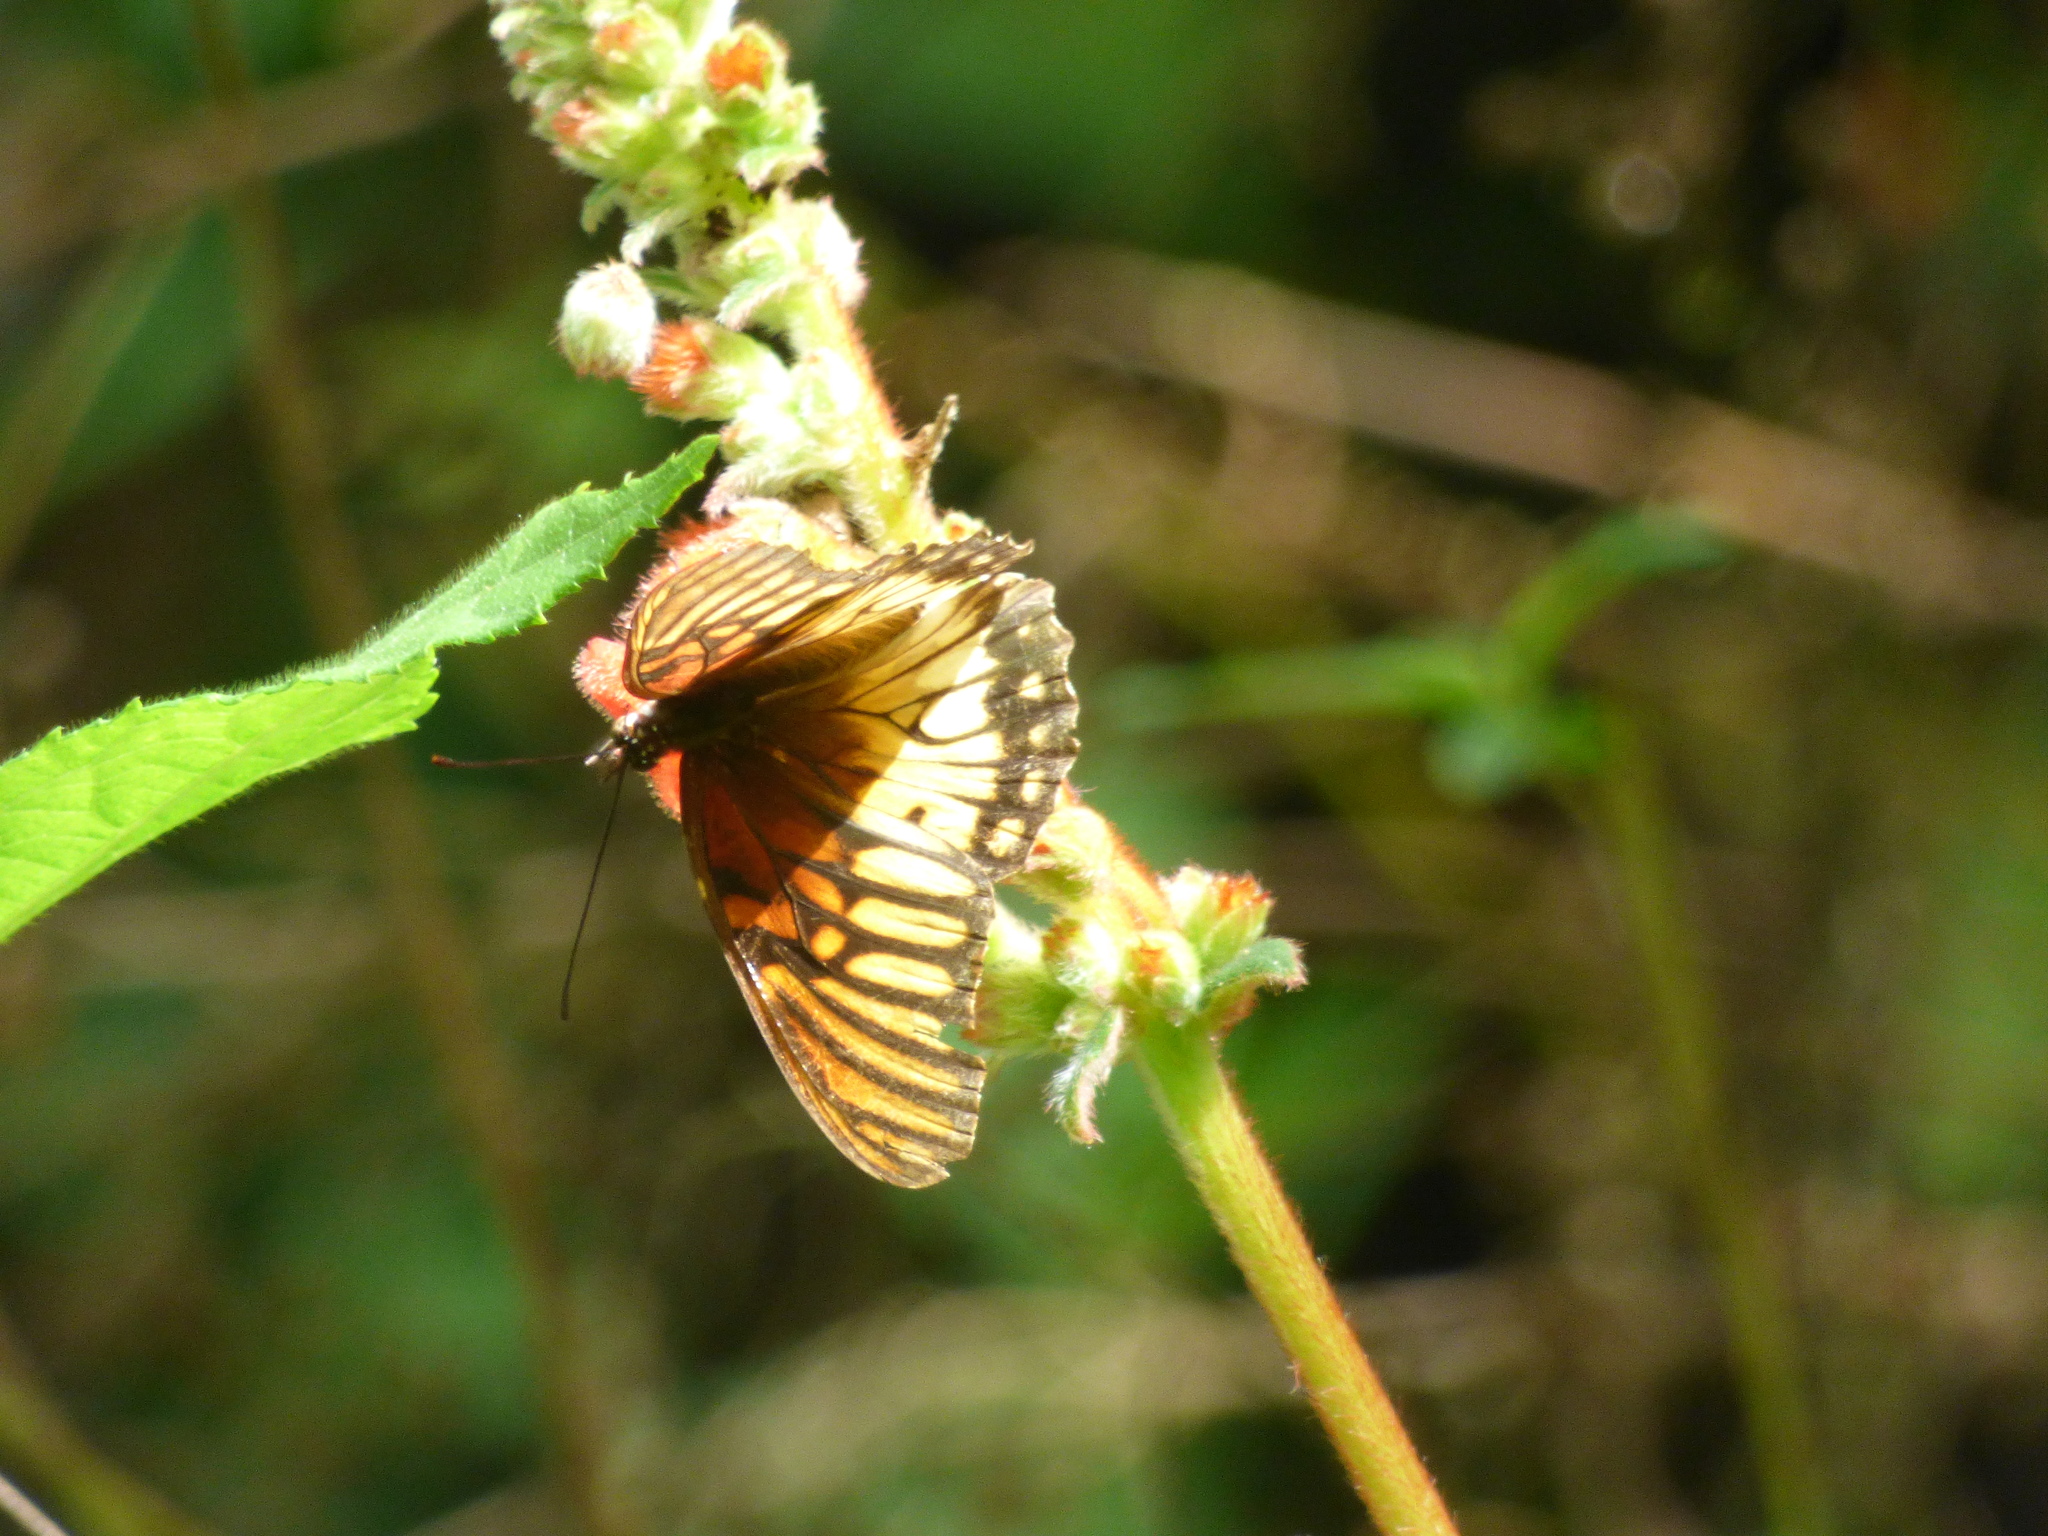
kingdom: Animalia
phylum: Arthropoda
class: Insecta
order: Lepidoptera
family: Nymphalidae
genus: Dione
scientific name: Dione moneta
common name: Mexican silverspot
